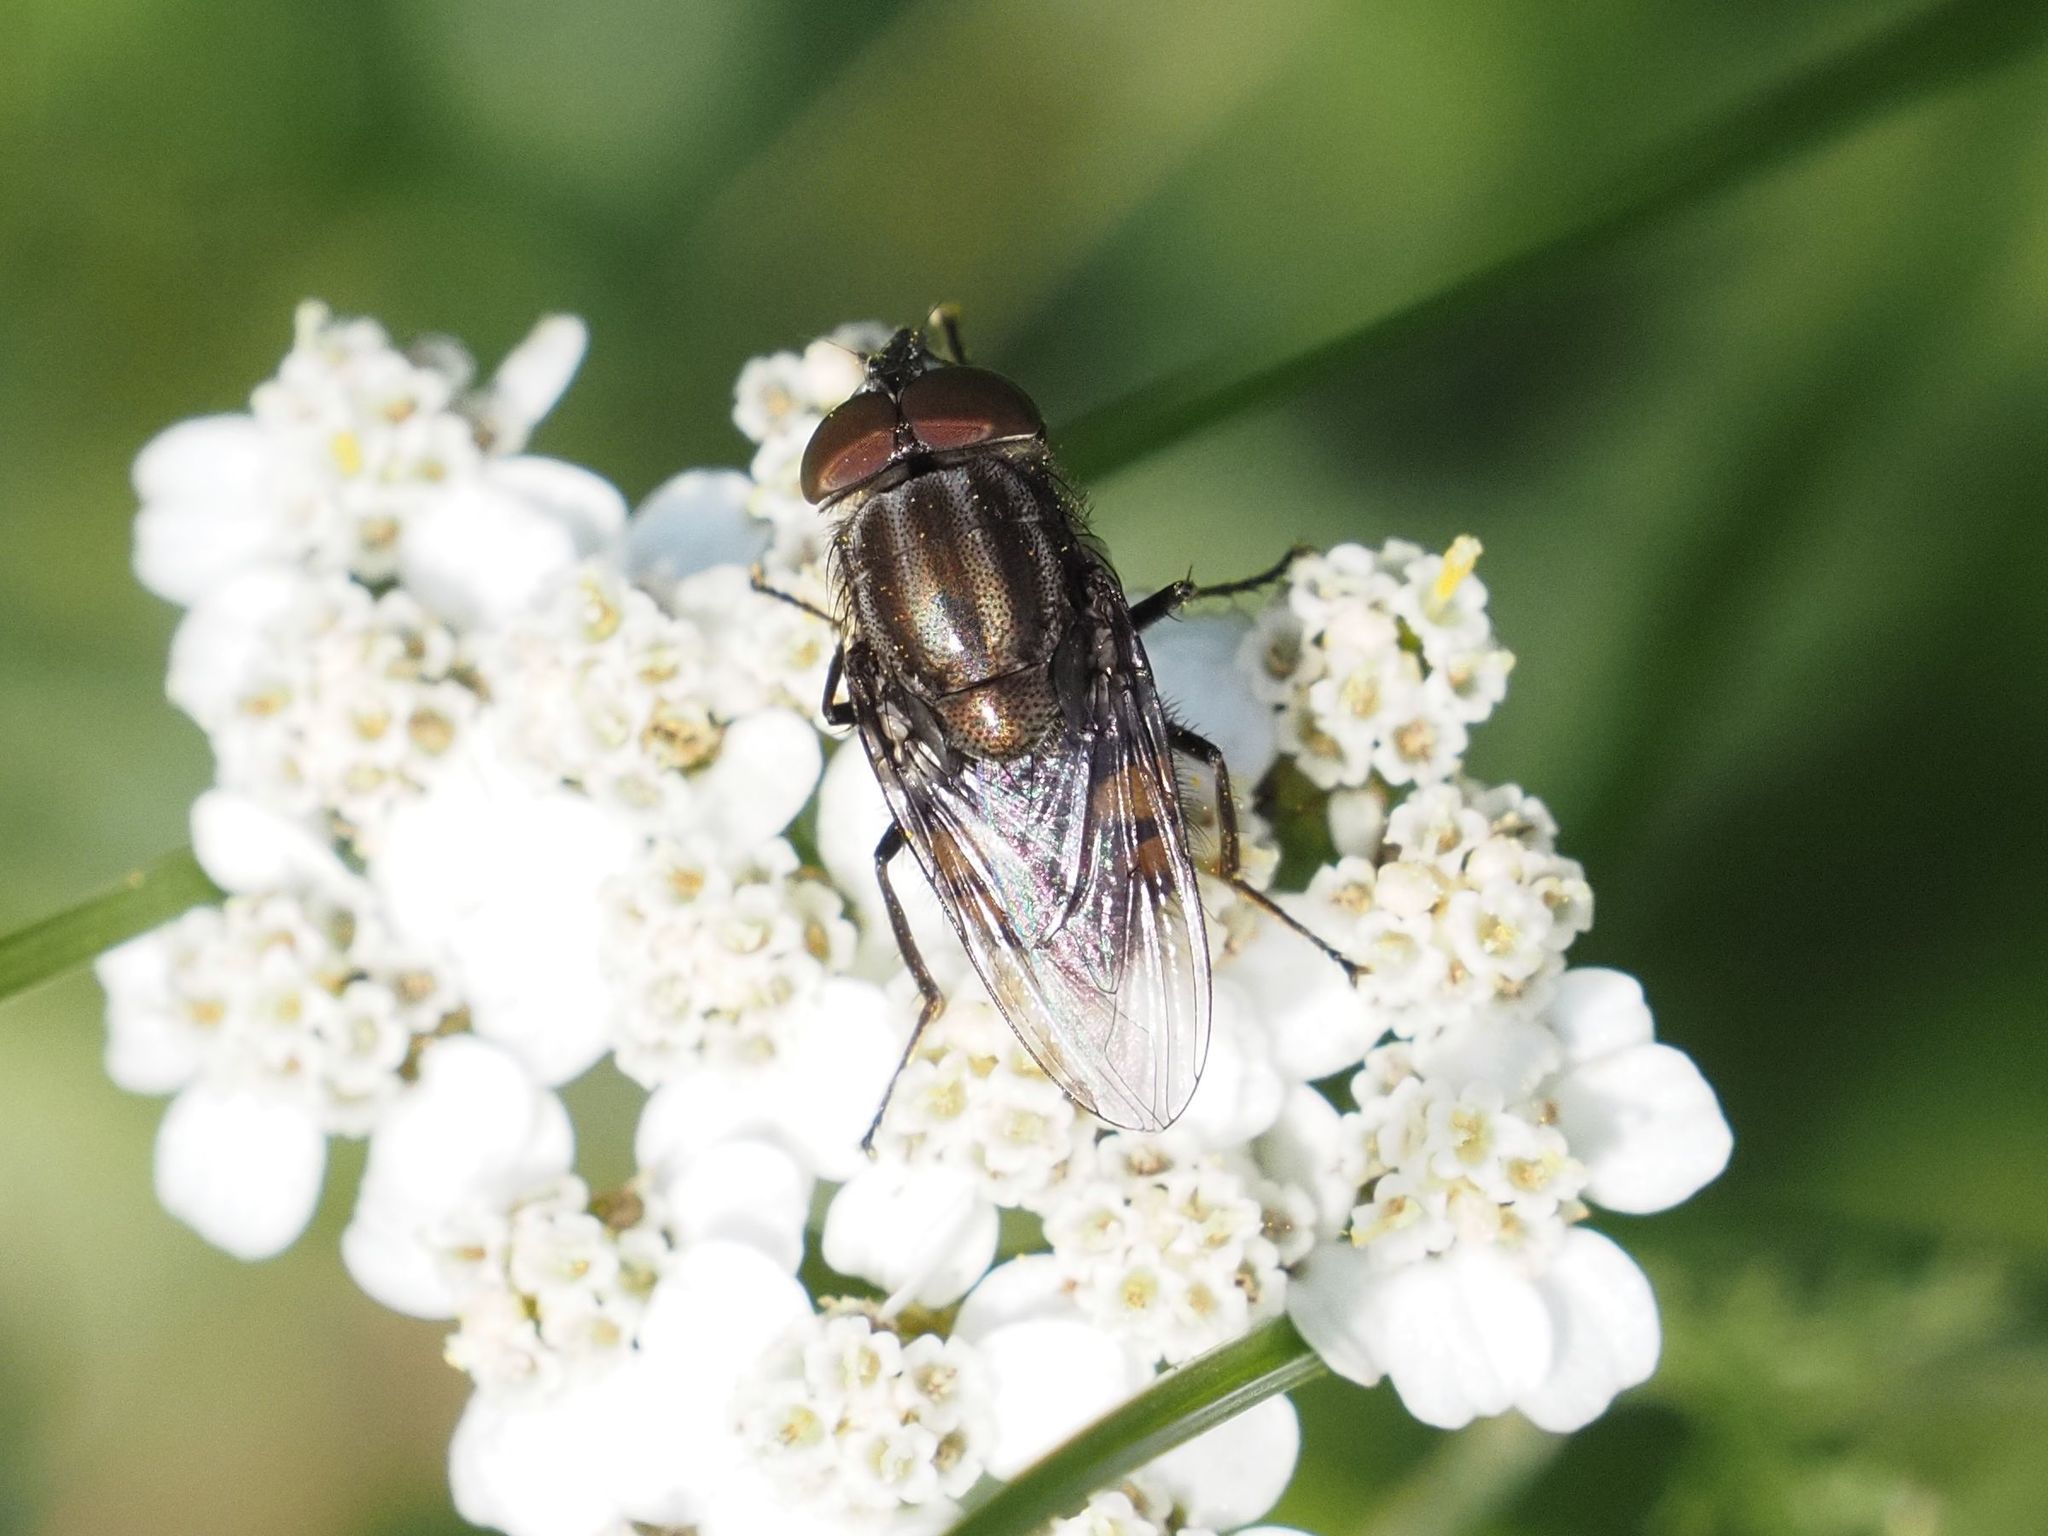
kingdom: Animalia
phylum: Arthropoda
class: Insecta
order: Diptera
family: Calliphoridae
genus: Stomorhina
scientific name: Stomorhina lunata
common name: Locust blowfly
